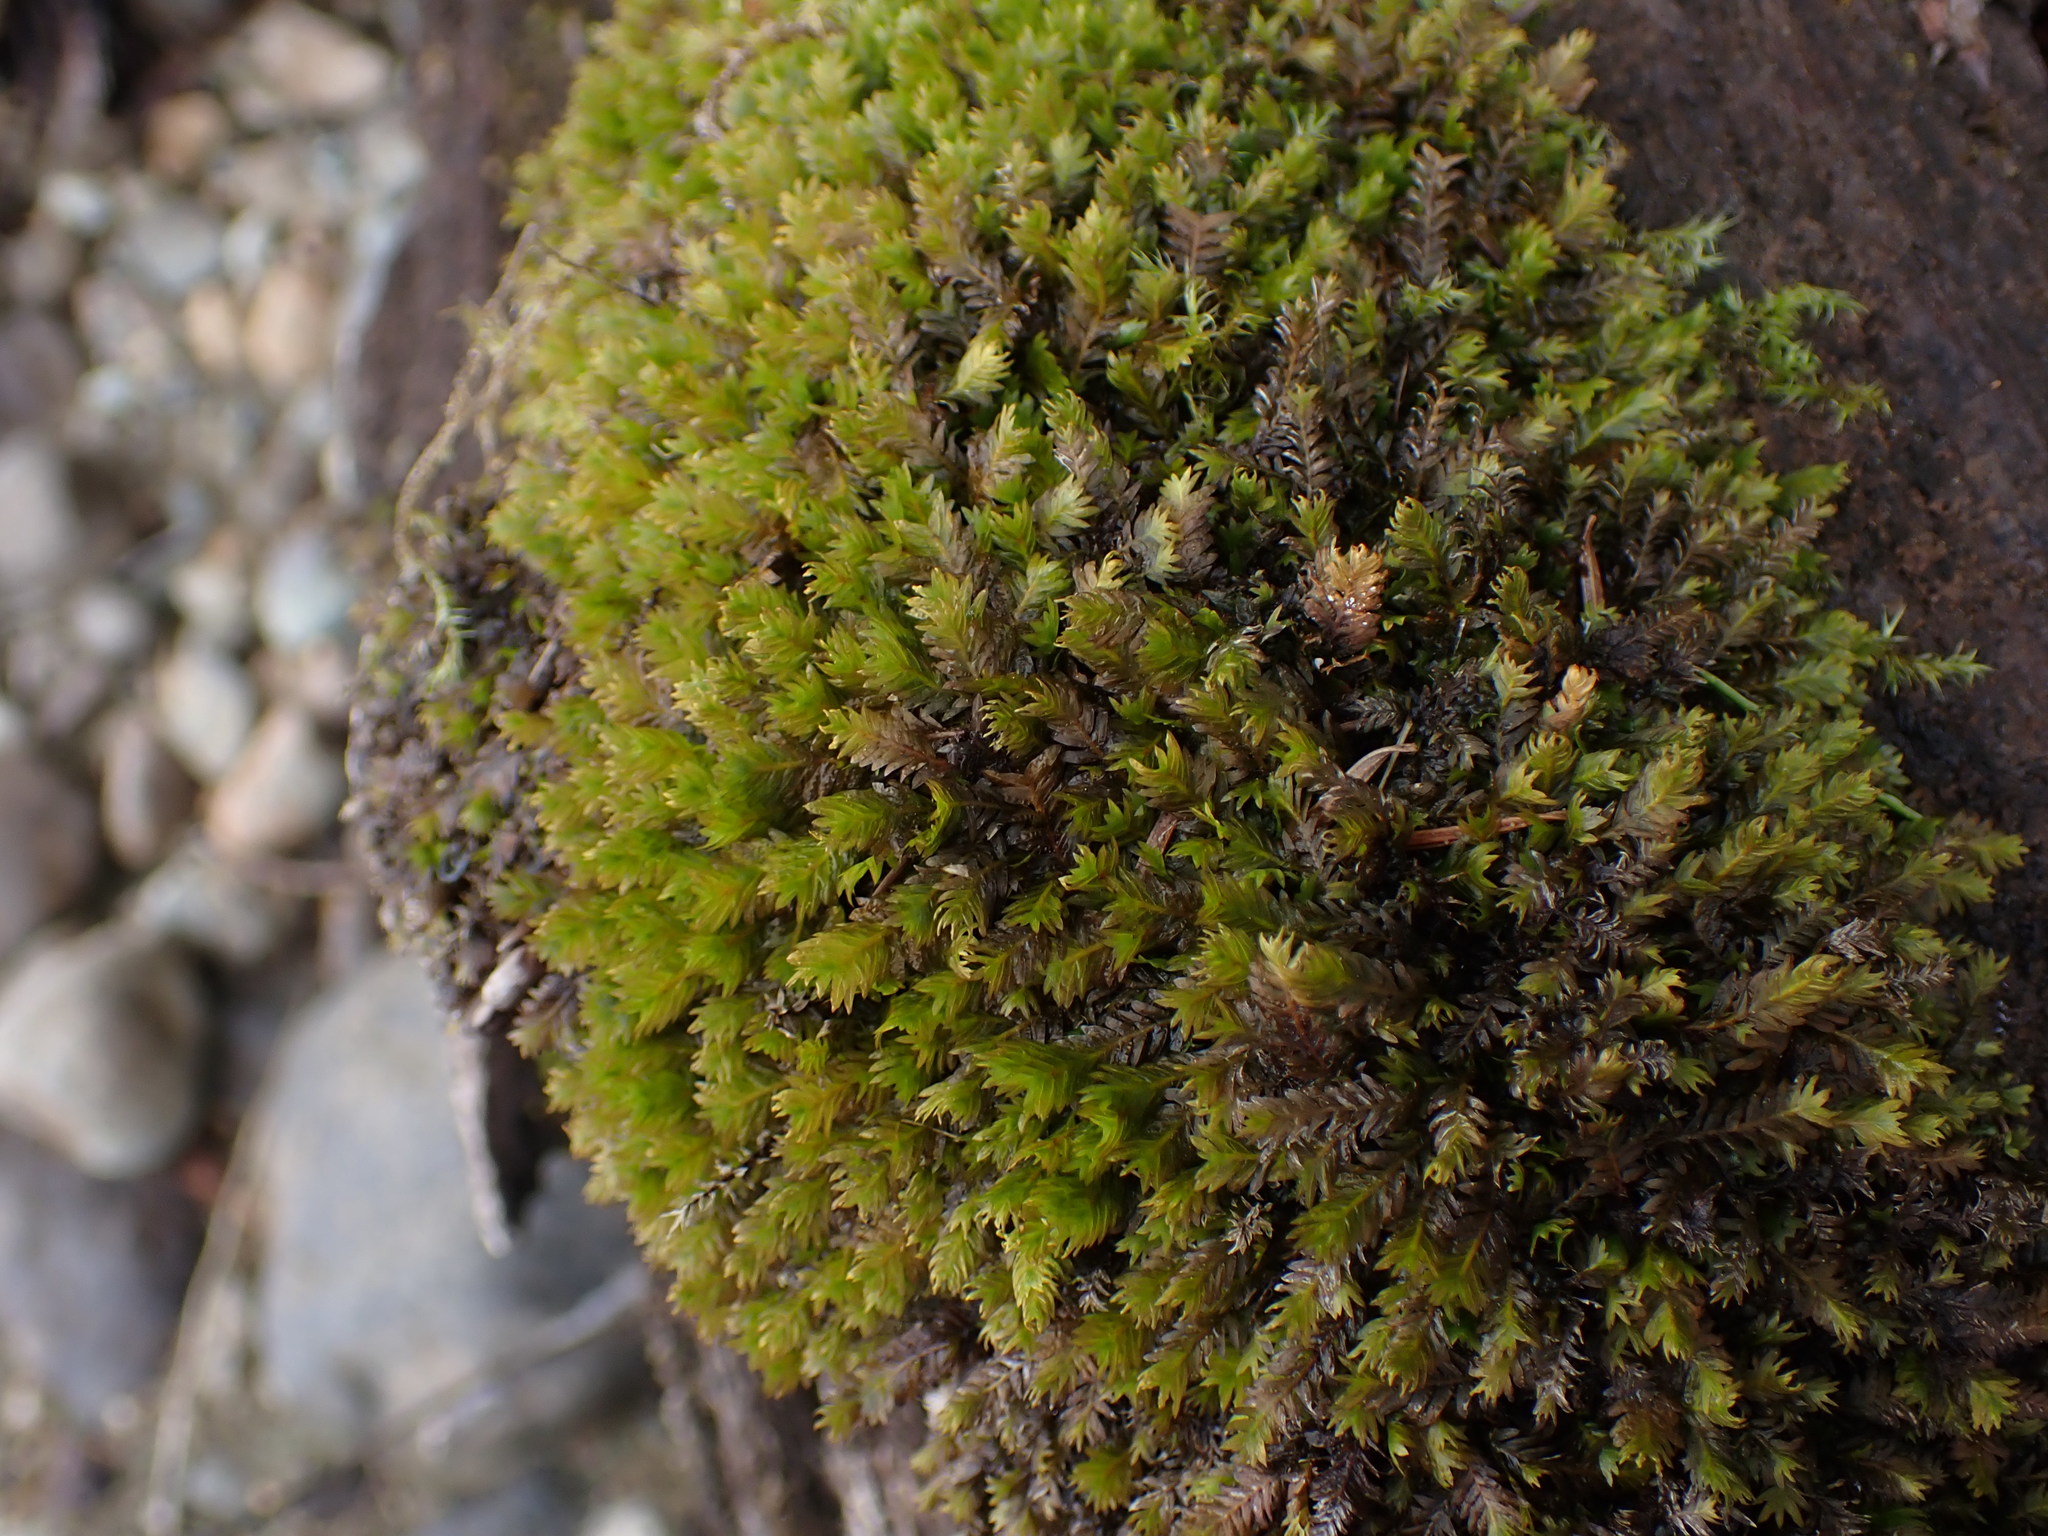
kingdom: Plantae
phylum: Bryophyta
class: Bryopsida
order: Dicranales
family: Fissidentaceae
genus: Fissidens
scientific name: Fissidens adianthoides
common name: Maidenhair pocket moss
